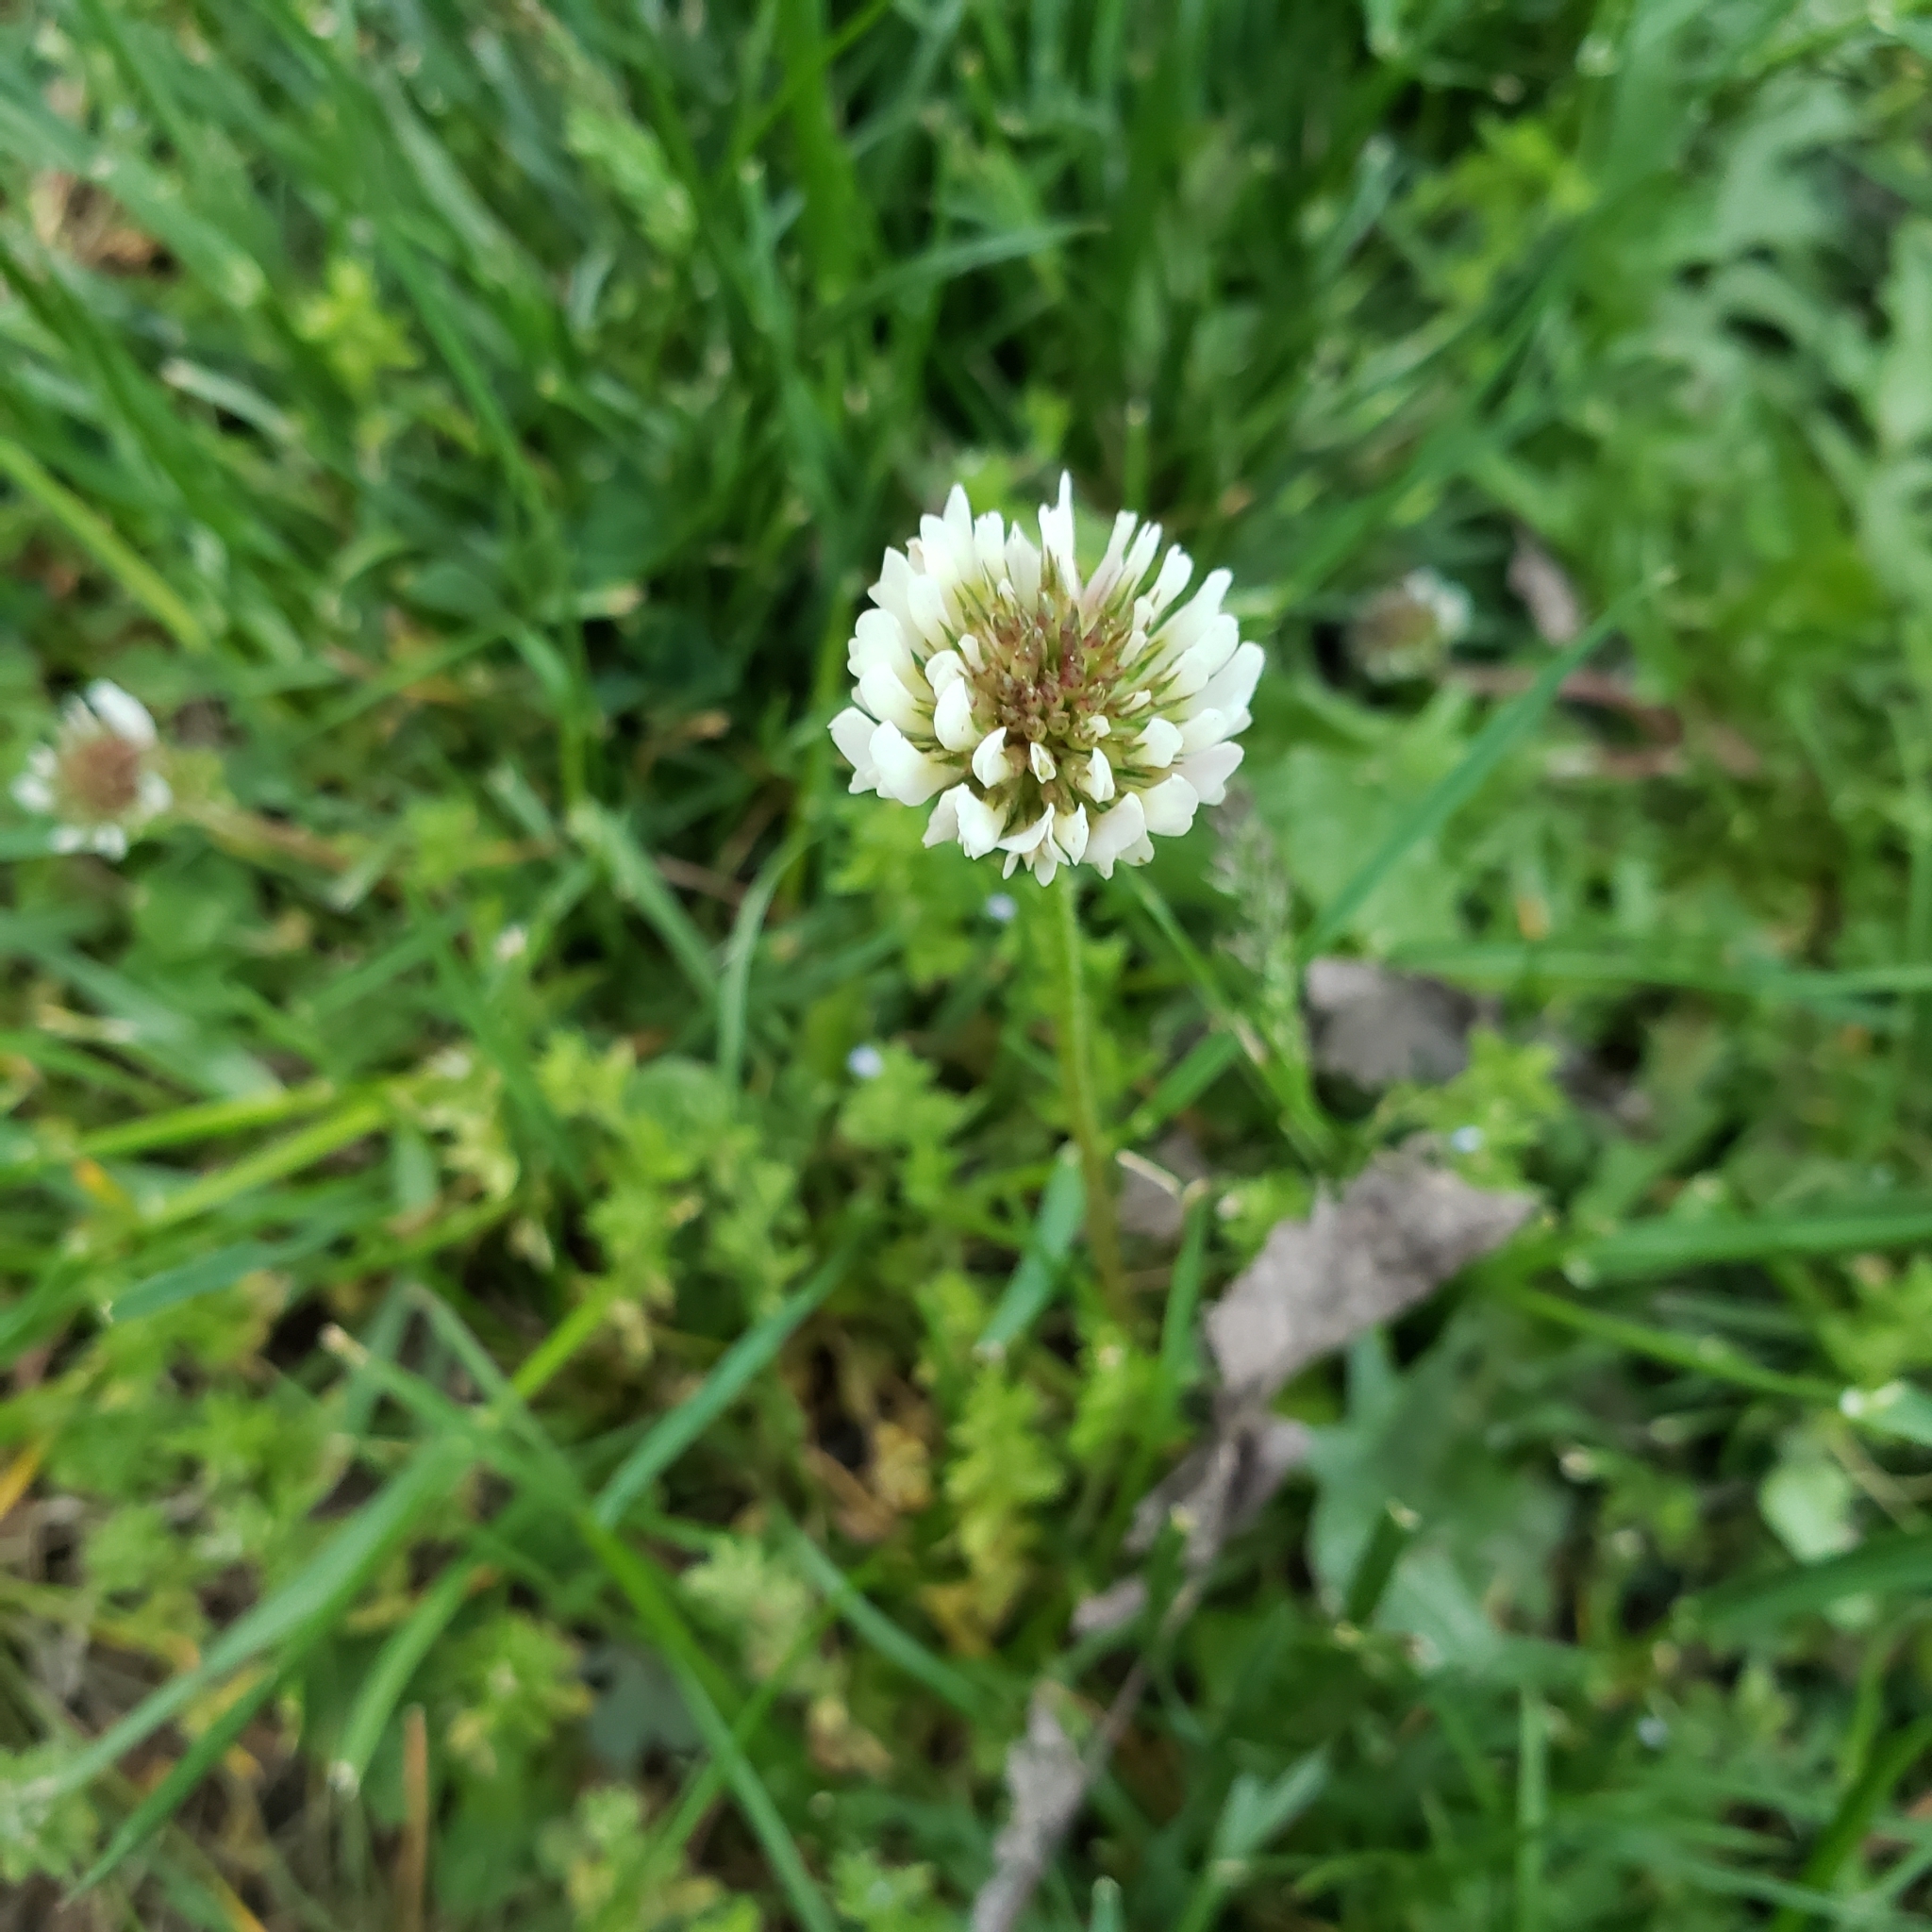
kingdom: Plantae
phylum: Tracheophyta
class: Magnoliopsida
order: Fabales
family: Fabaceae
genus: Trifolium
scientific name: Trifolium repens
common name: White clover
